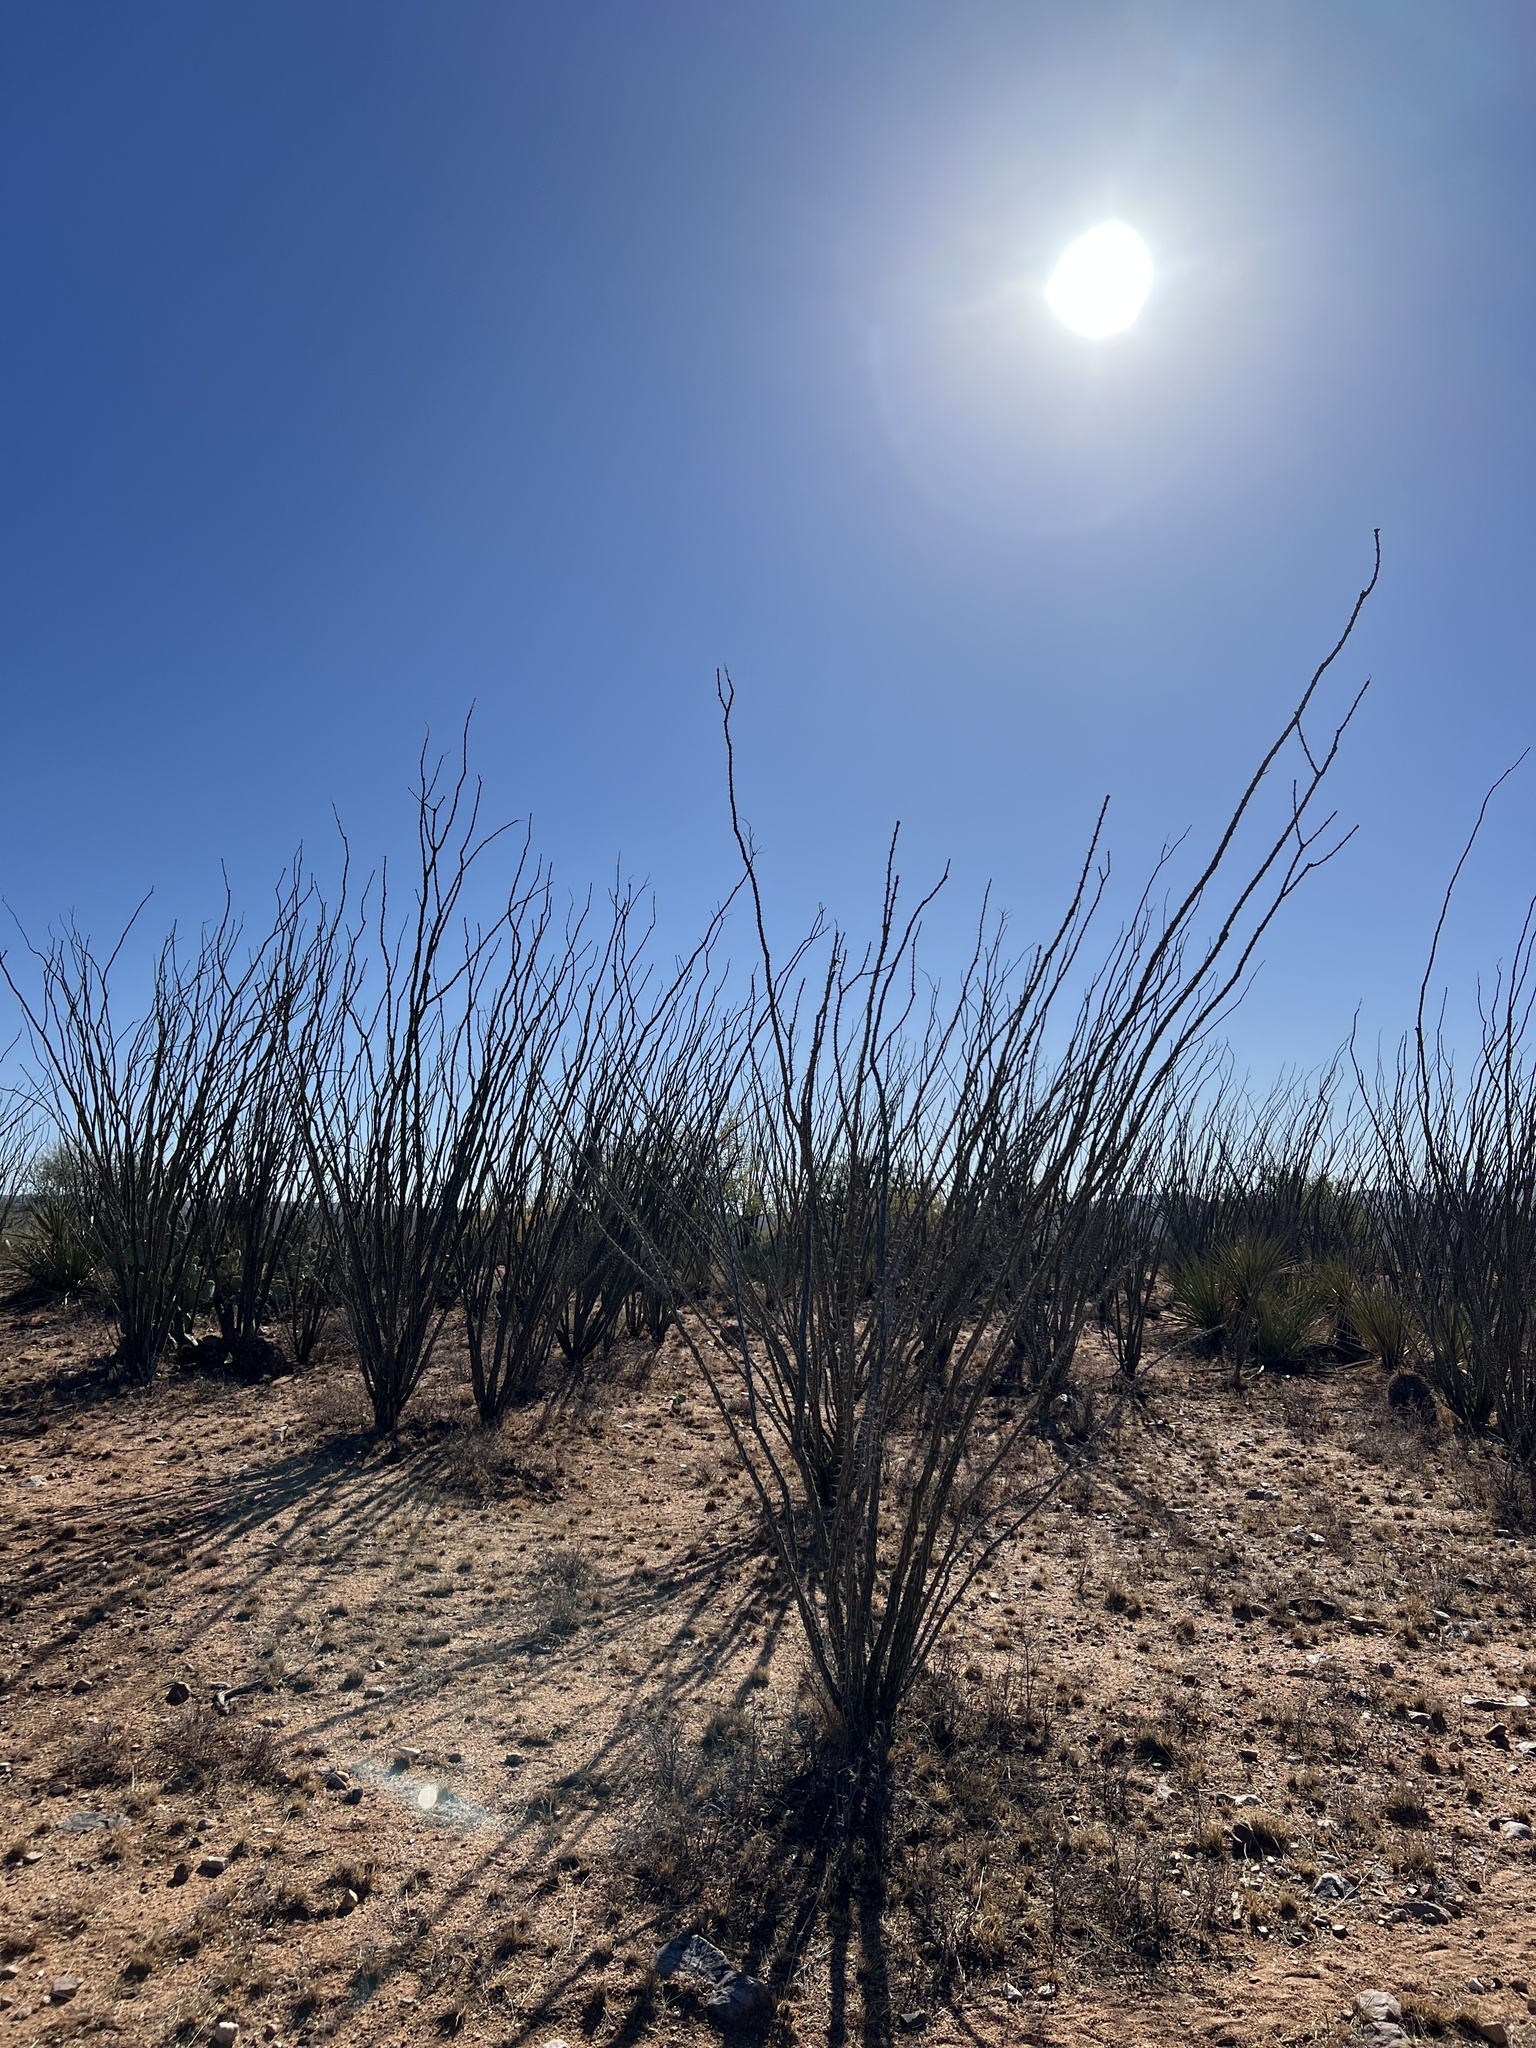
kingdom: Plantae
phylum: Tracheophyta
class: Magnoliopsida
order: Ericales
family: Fouquieriaceae
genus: Fouquieria
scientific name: Fouquieria splendens
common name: Vine-cactus
